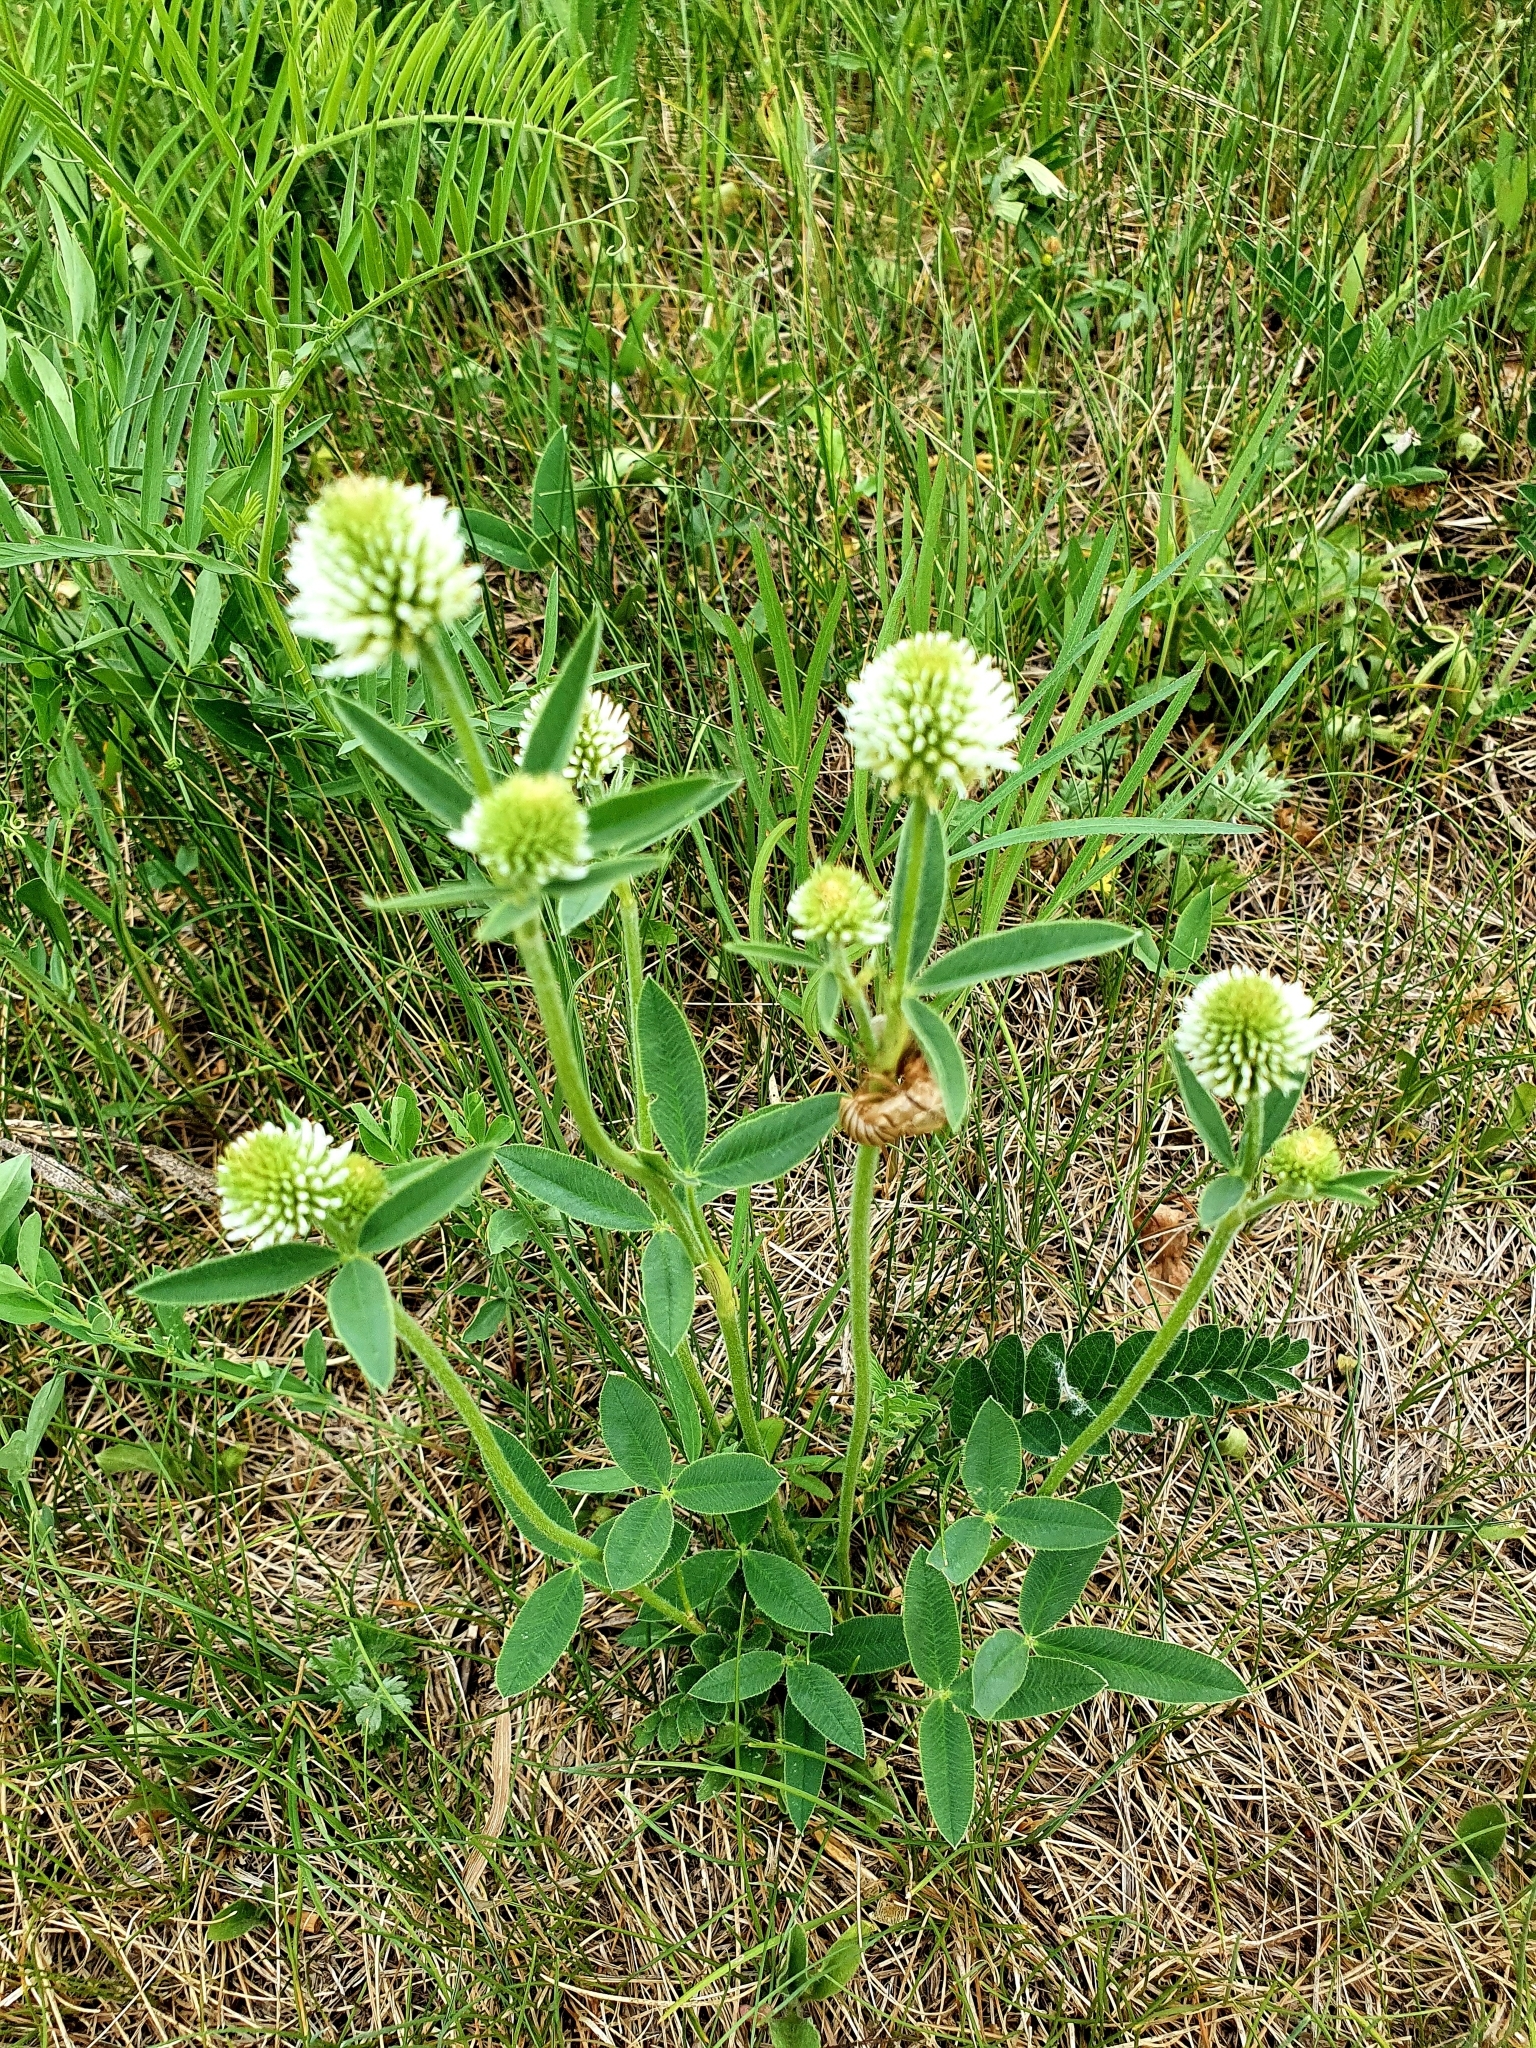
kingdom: Plantae
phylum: Tracheophyta
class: Magnoliopsida
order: Fabales
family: Fabaceae
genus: Trifolium
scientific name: Trifolium montanum
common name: Mountain clover
